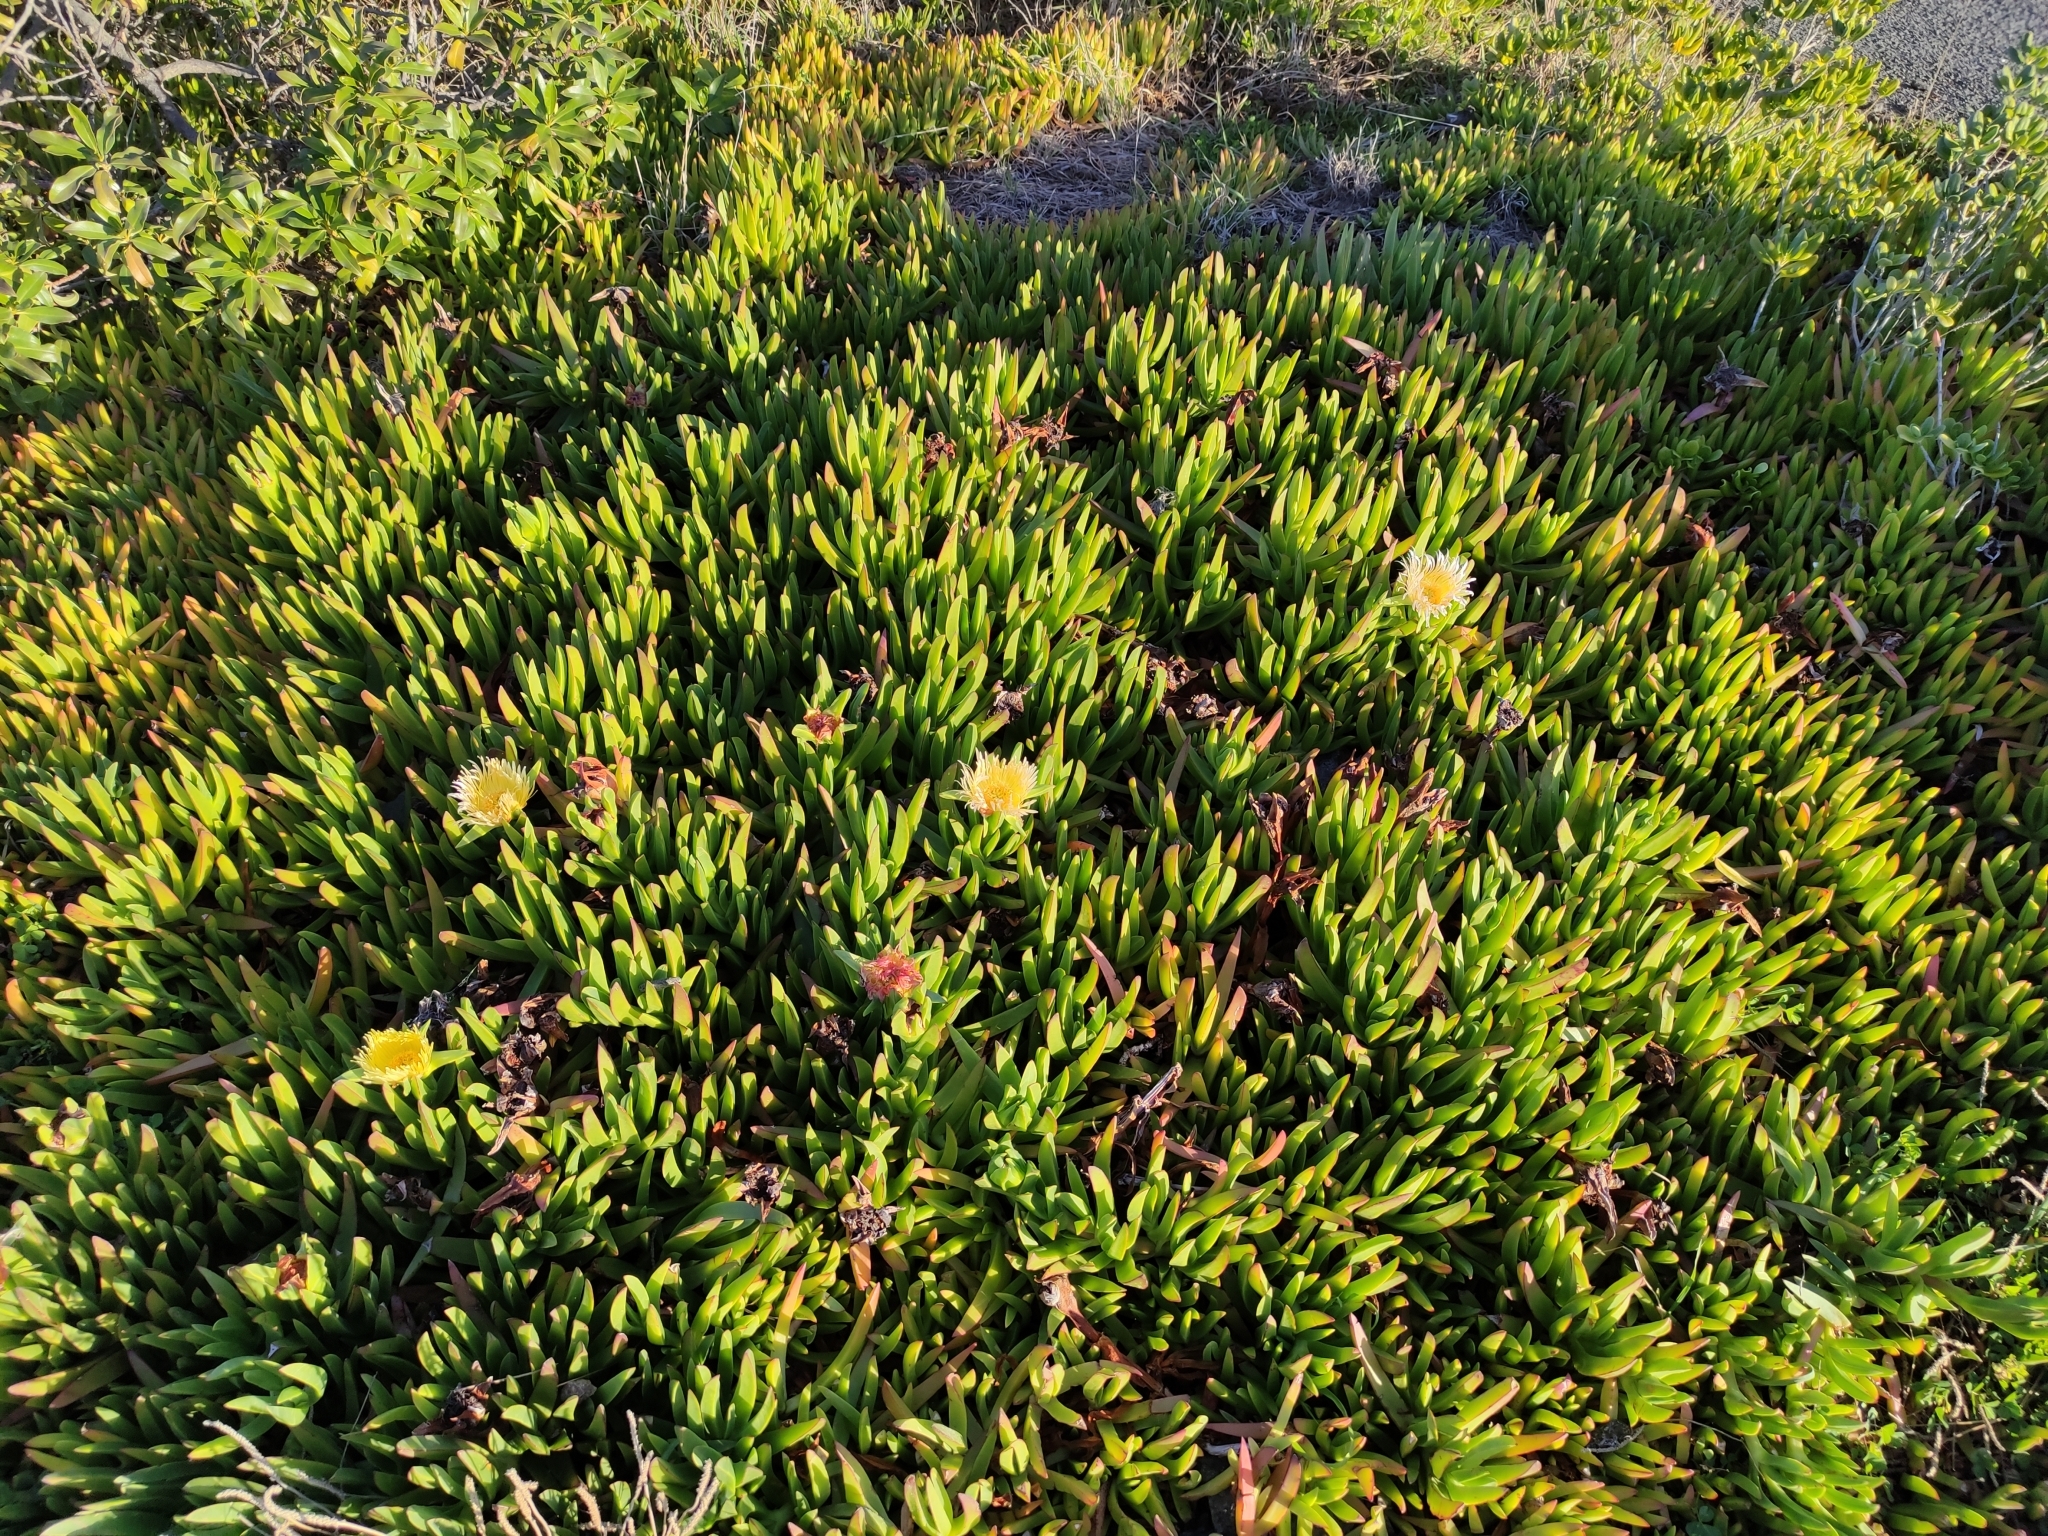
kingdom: Plantae
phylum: Tracheophyta
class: Magnoliopsida
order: Caryophyllales
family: Aizoaceae
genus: Carpobrotus
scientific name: Carpobrotus edulis
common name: Hottentot-fig
